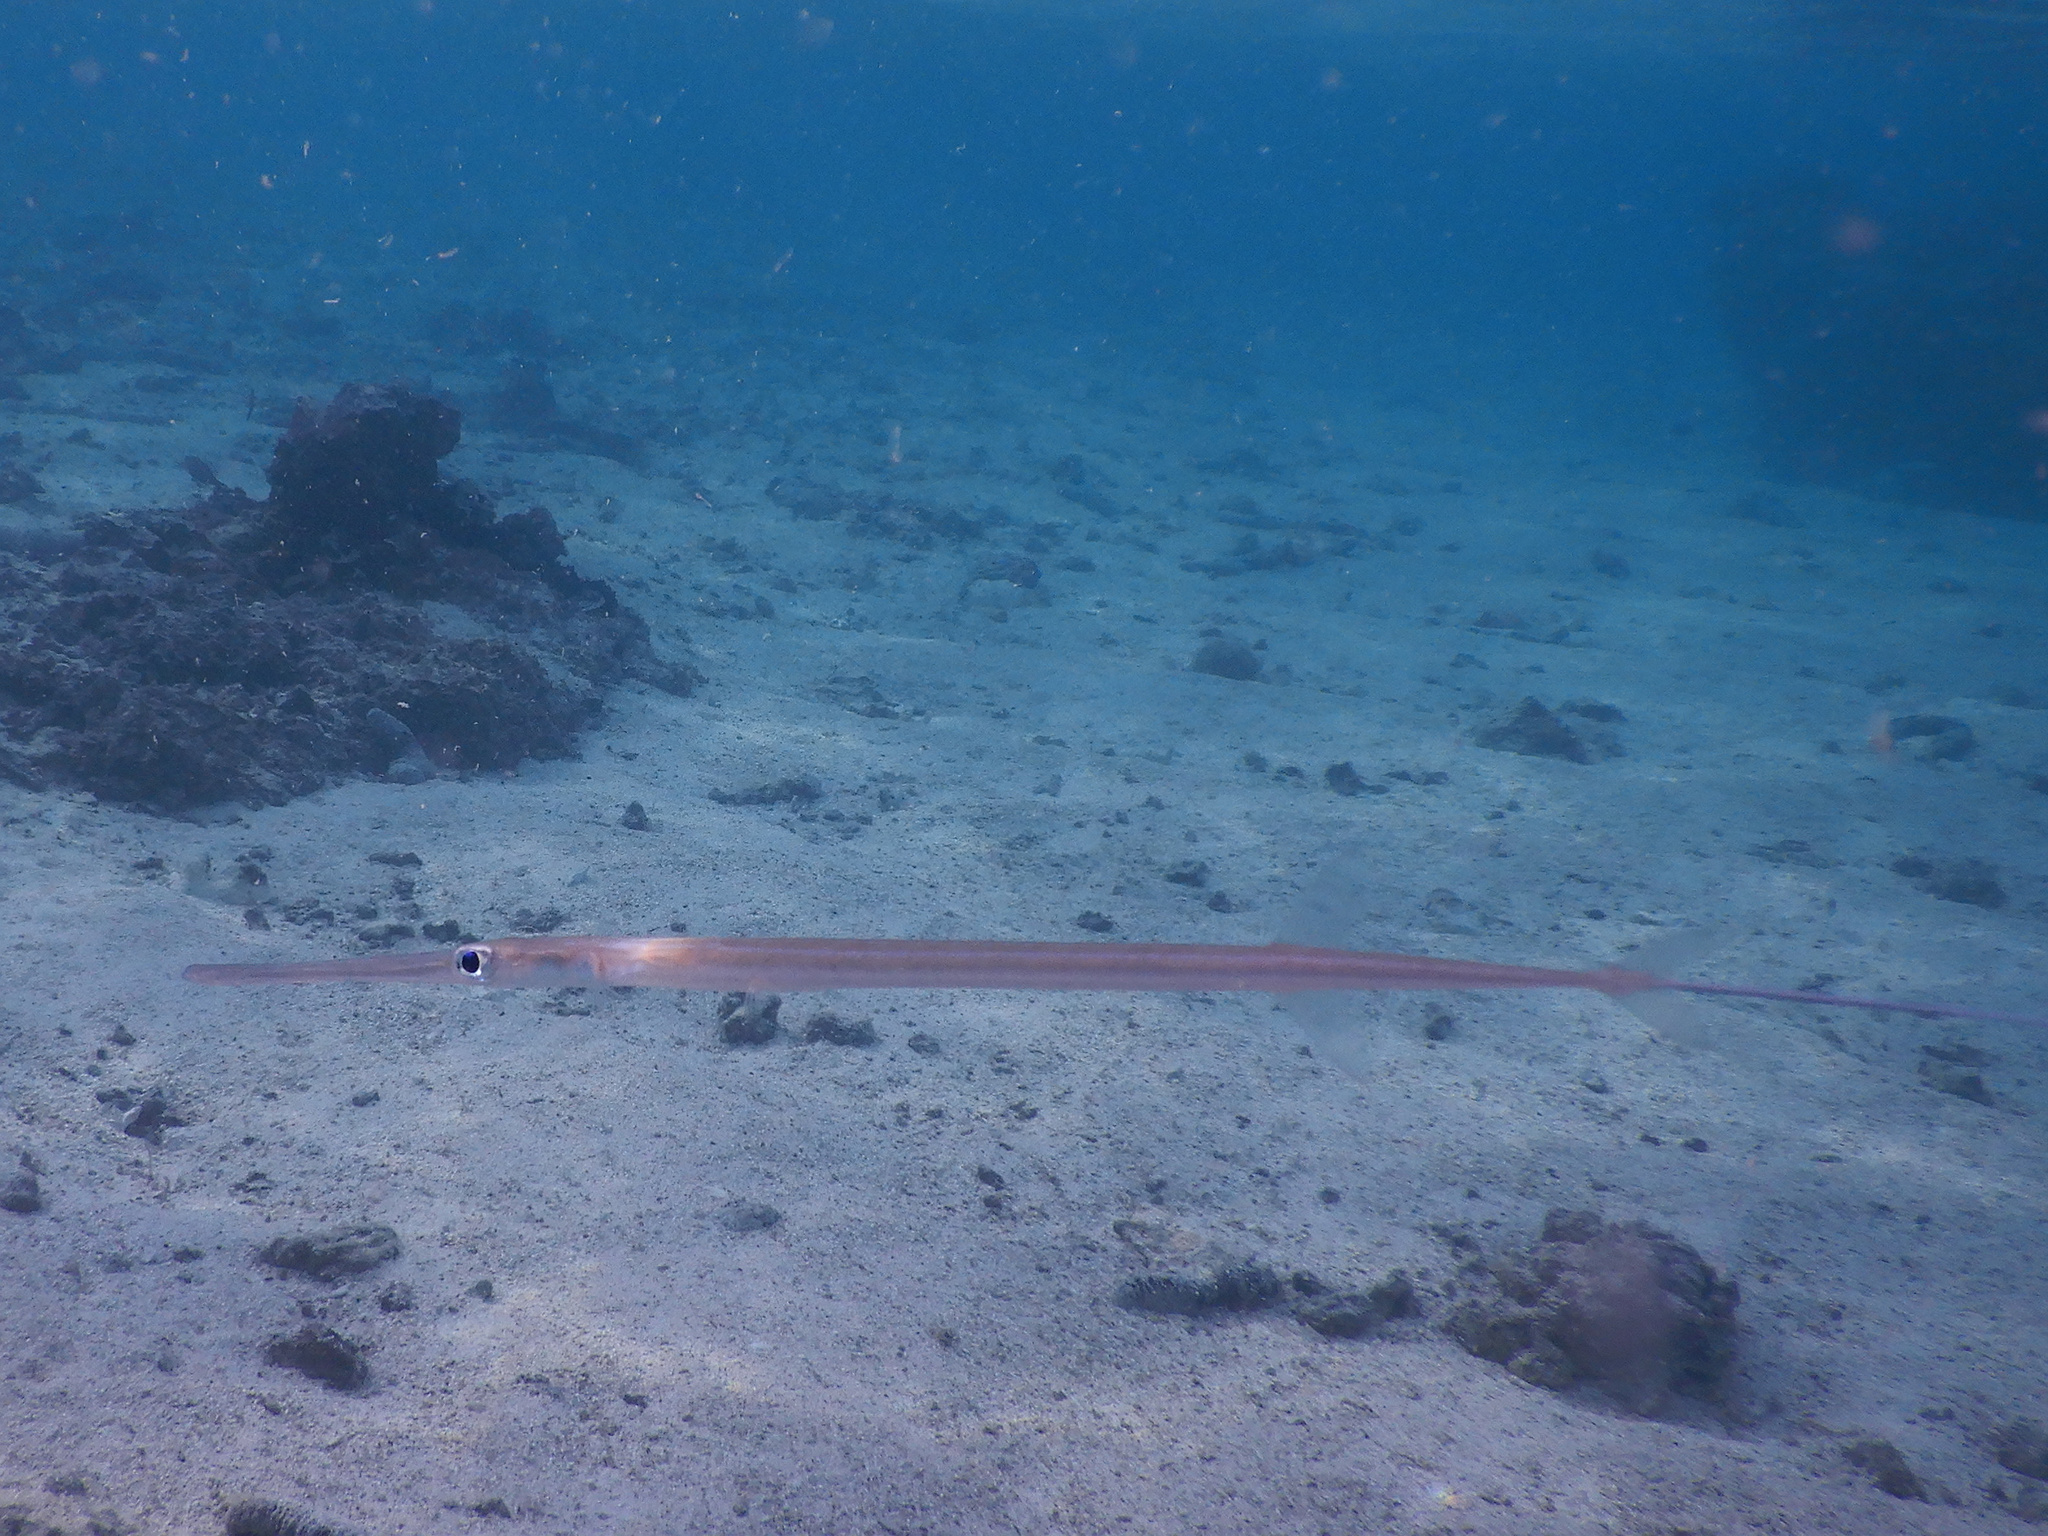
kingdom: Animalia
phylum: Chordata
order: Syngnathiformes
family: Fistulariidae
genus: Fistularia
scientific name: Fistularia commersonii
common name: Bluespotted cornetfish
